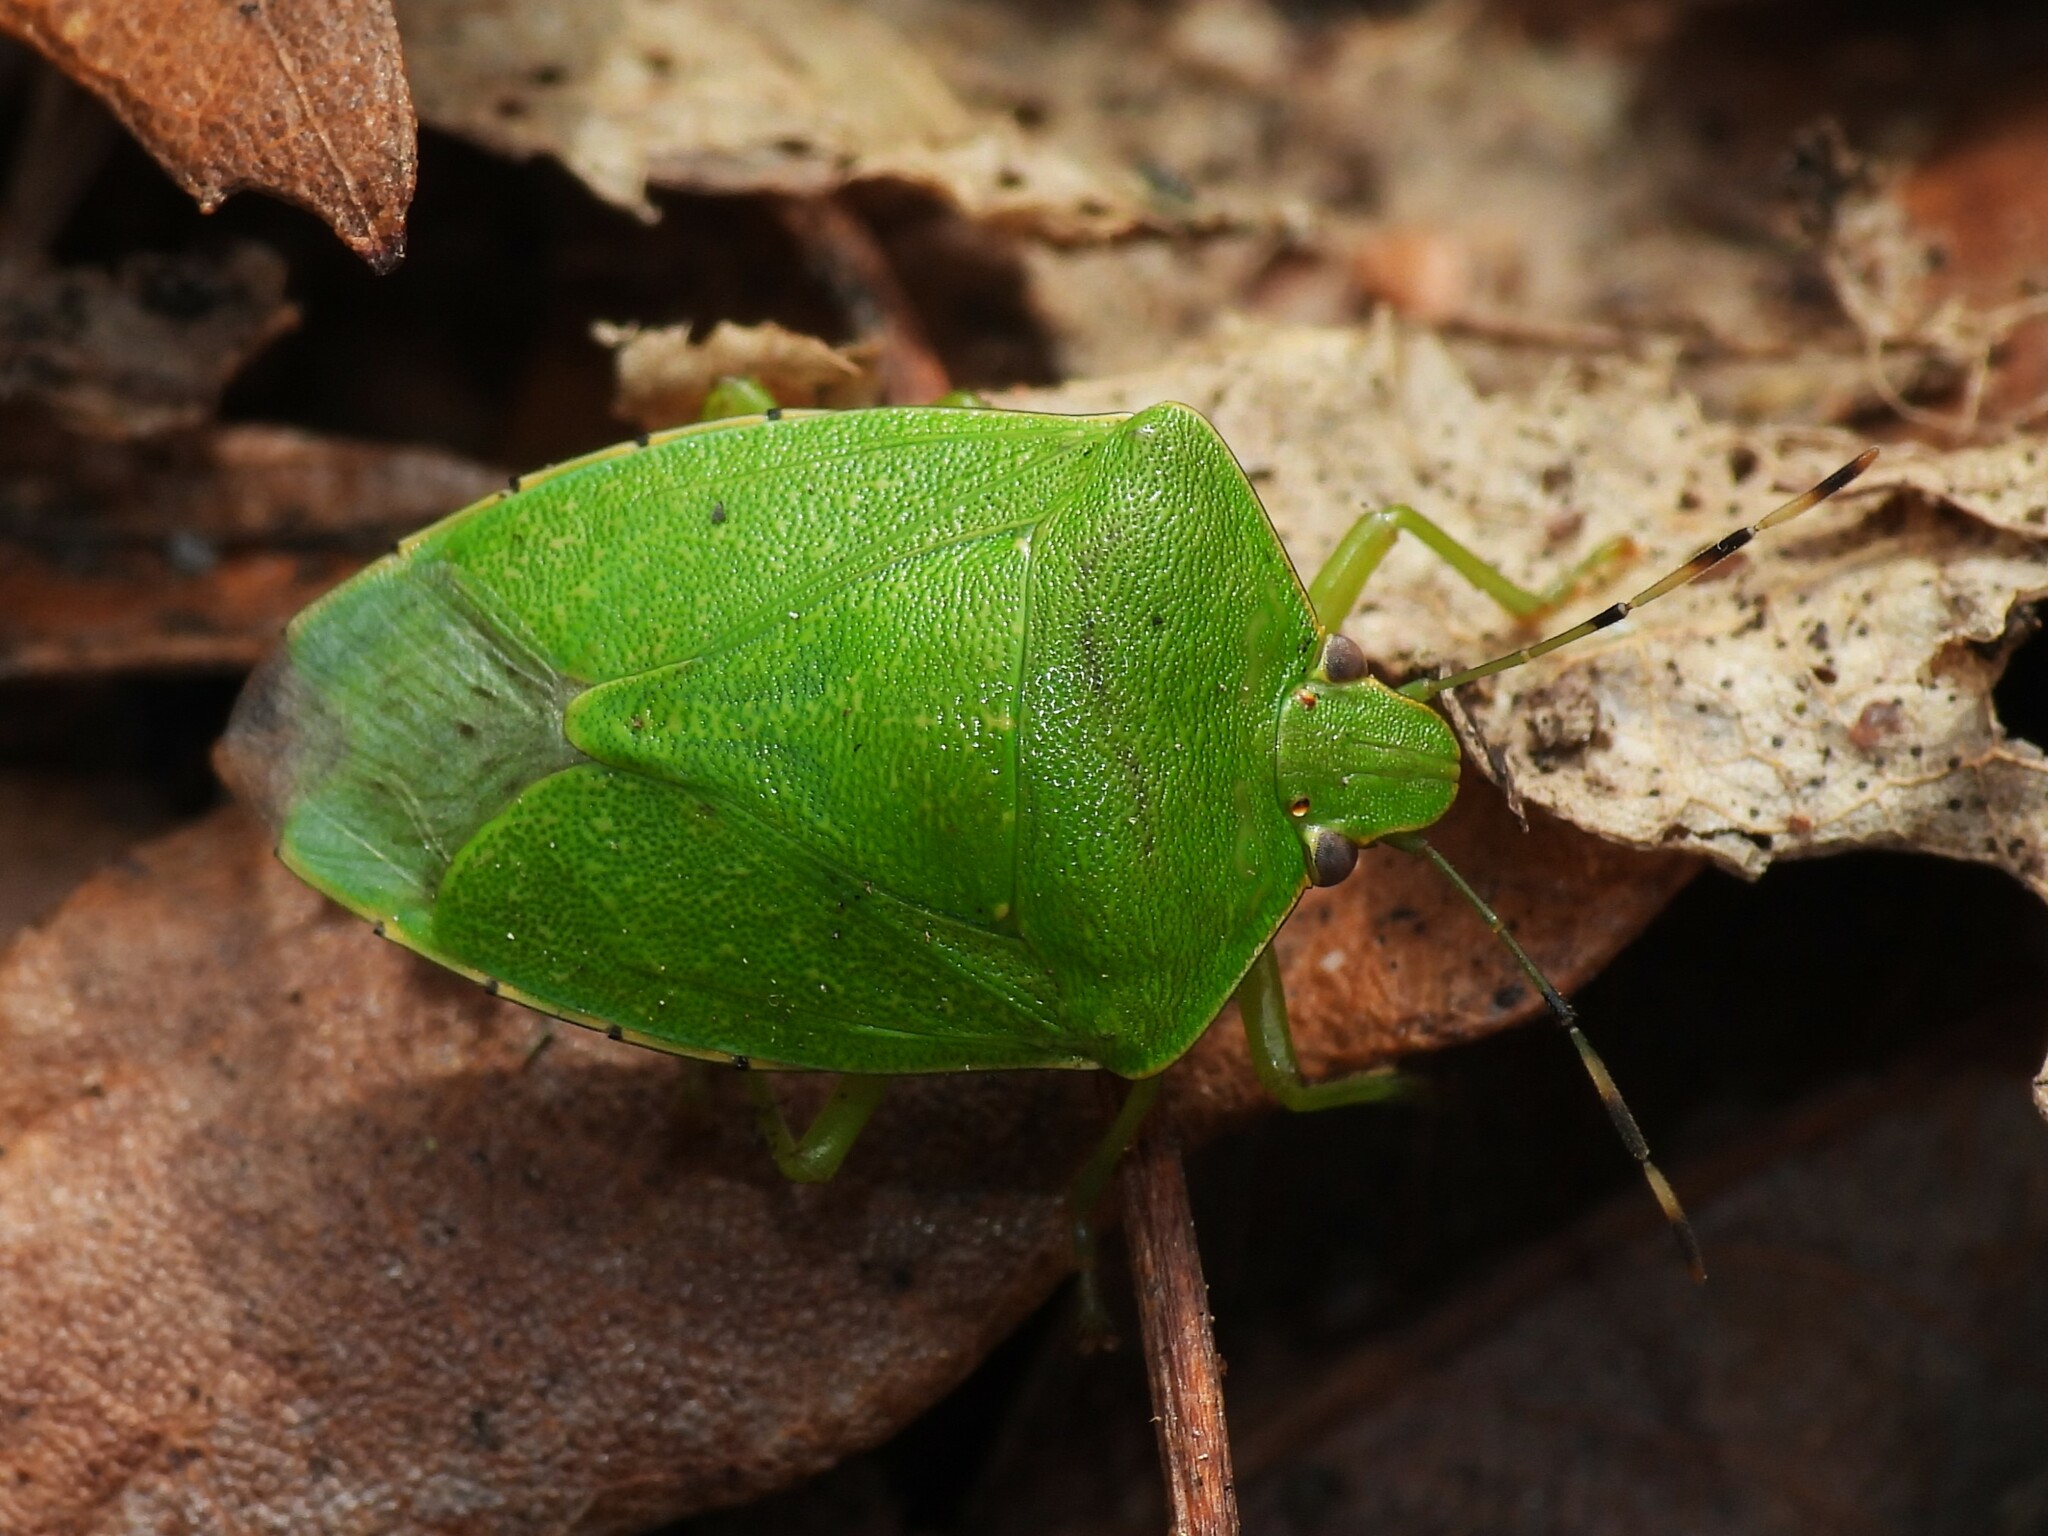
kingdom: Animalia
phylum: Arthropoda
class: Insecta
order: Hemiptera
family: Pentatomidae
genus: Chinavia
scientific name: Chinavia hilaris
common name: Green stink bug
